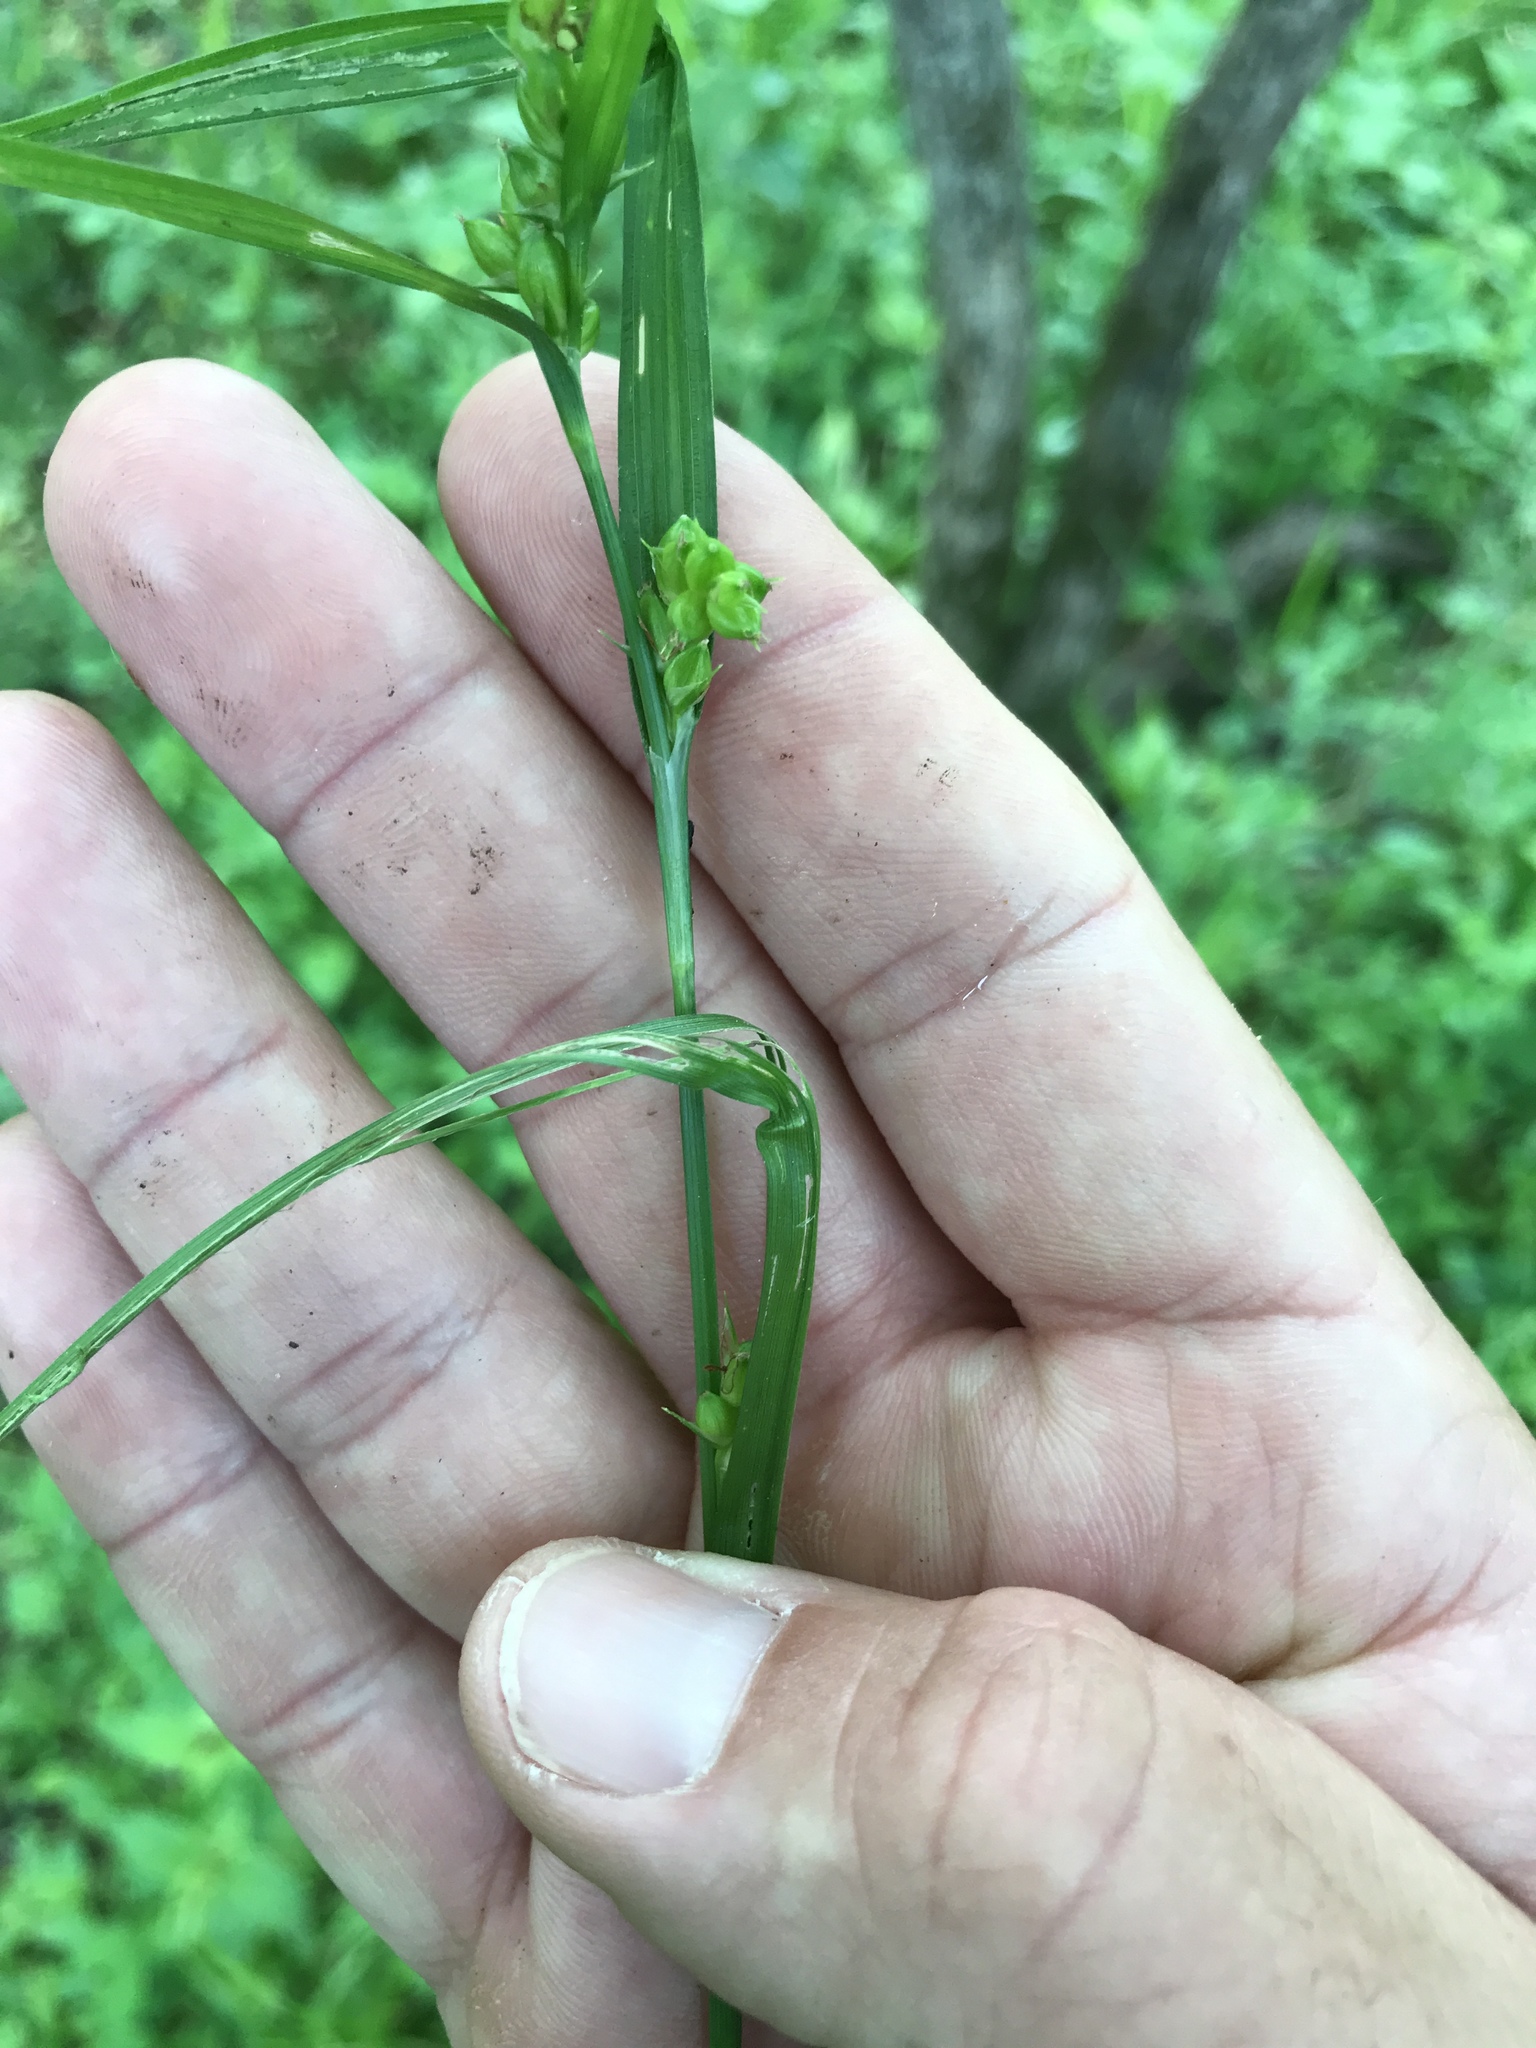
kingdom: Plantae
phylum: Tracheophyta
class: Liliopsida
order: Poales
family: Cyperaceae
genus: Carex
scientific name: Carex amphibola
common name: Amphibious sedge
